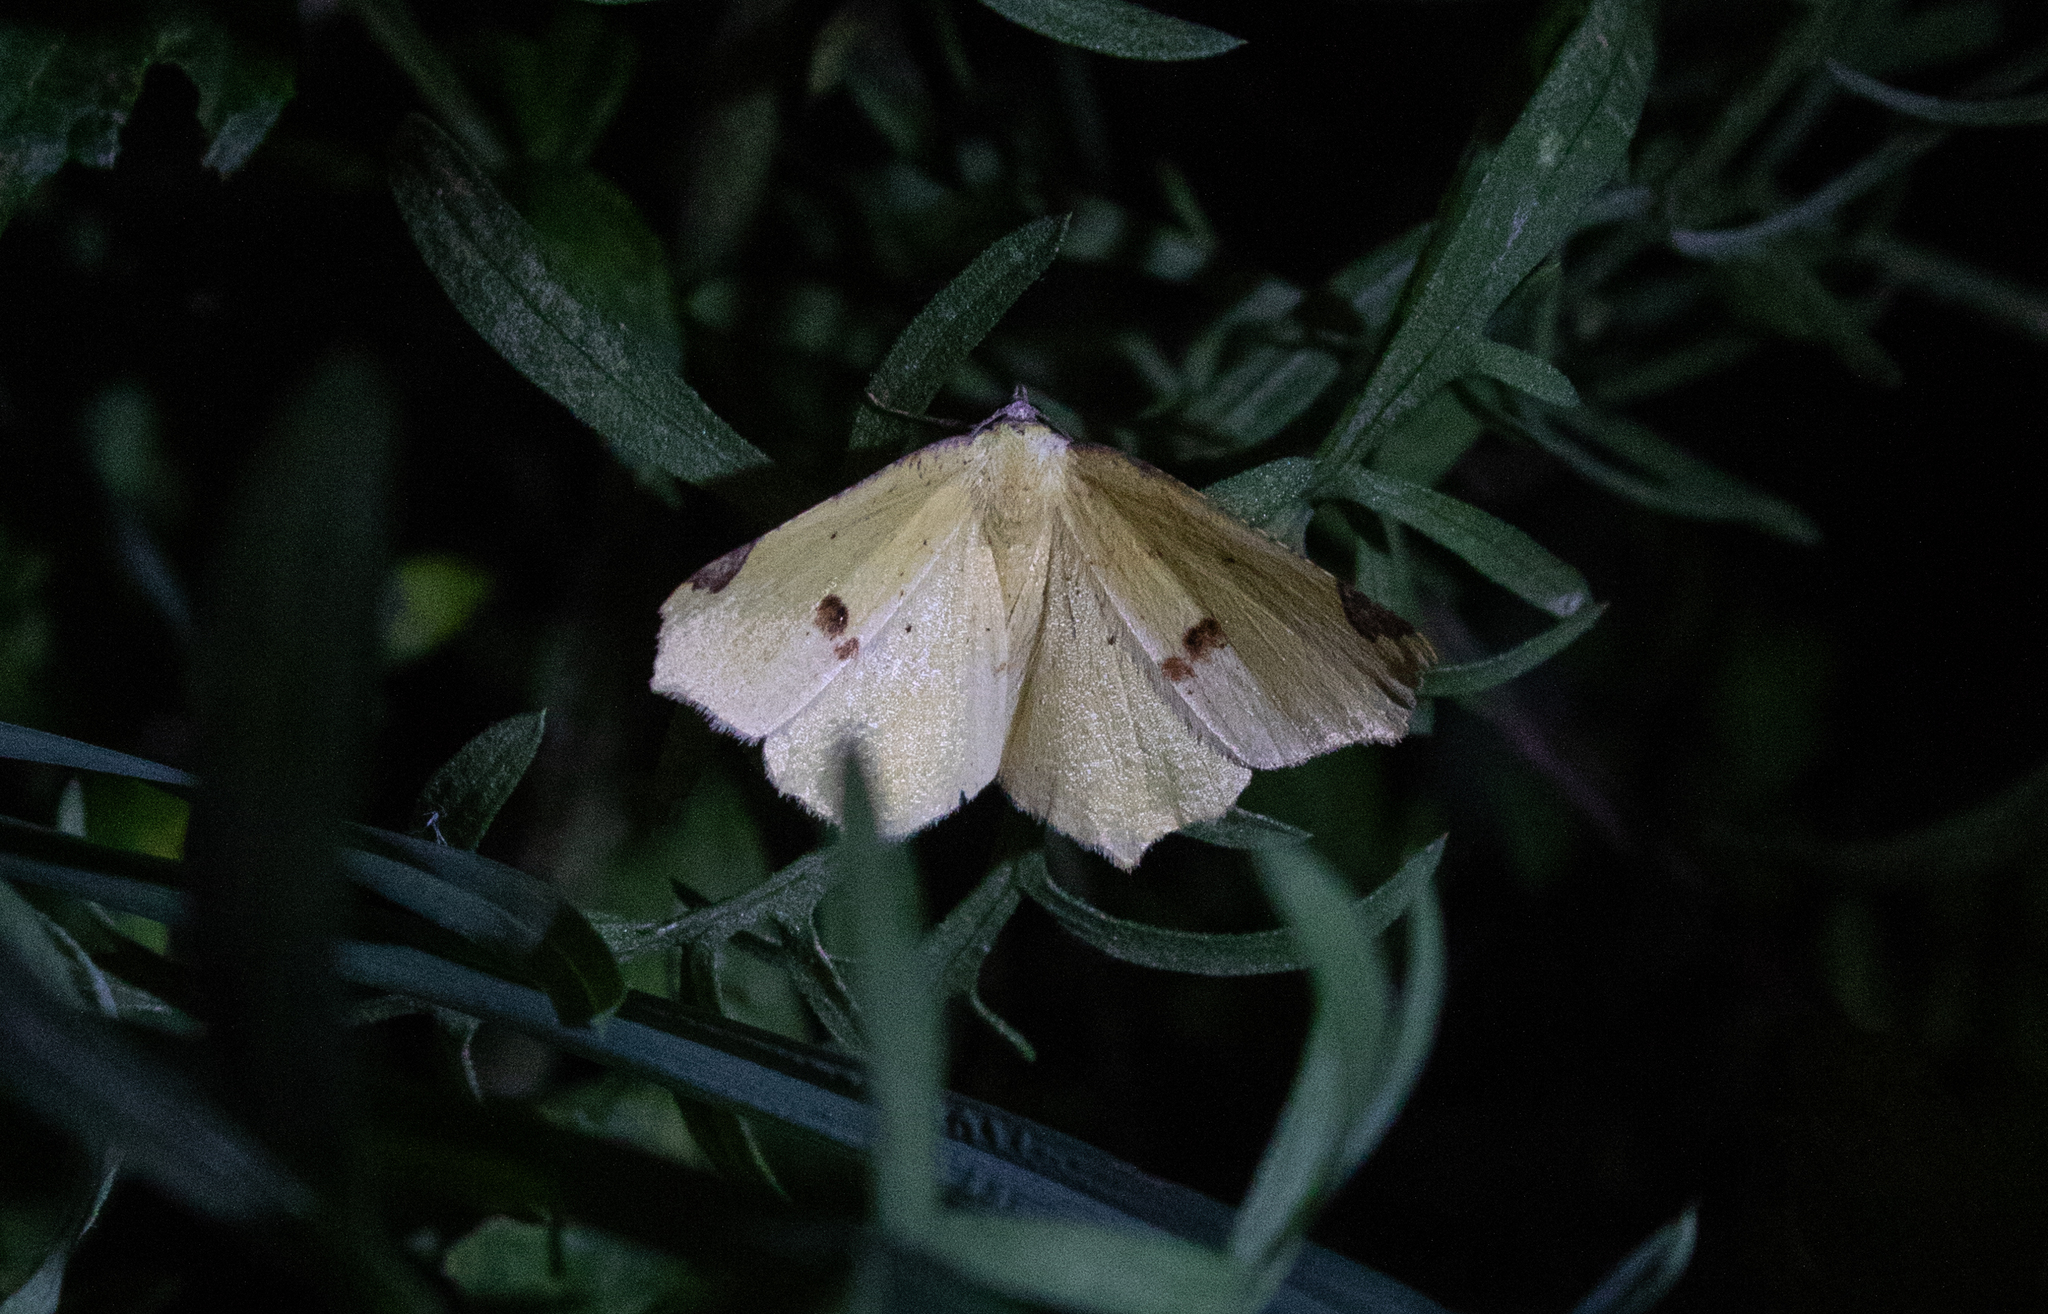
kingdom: Animalia
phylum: Arthropoda
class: Insecta
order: Lepidoptera
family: Geometridae
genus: Antepione
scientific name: Antepione thisoaria
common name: Variable antipione
